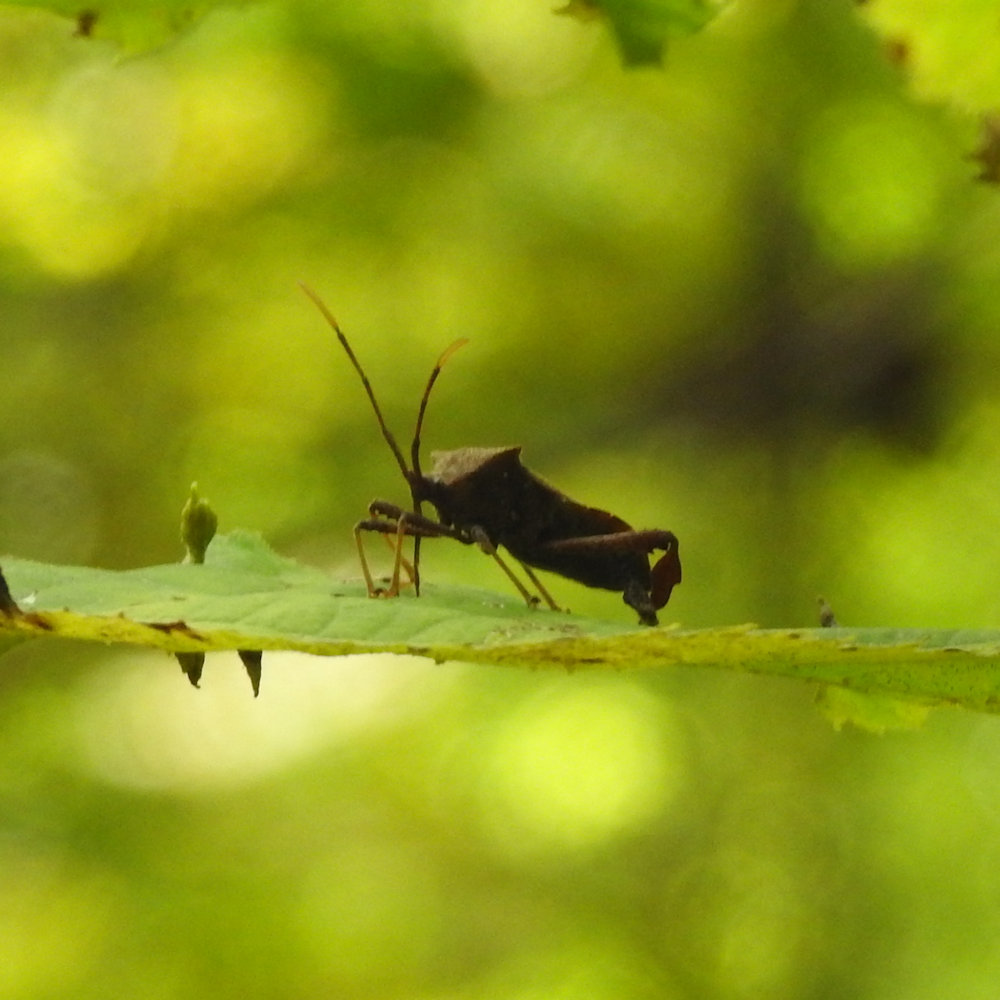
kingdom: Animalia
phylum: Arthropoda
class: Insecta
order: Hemiptera
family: Coreidae
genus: Acanthocephala
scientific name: Acanthocephala terminalis
